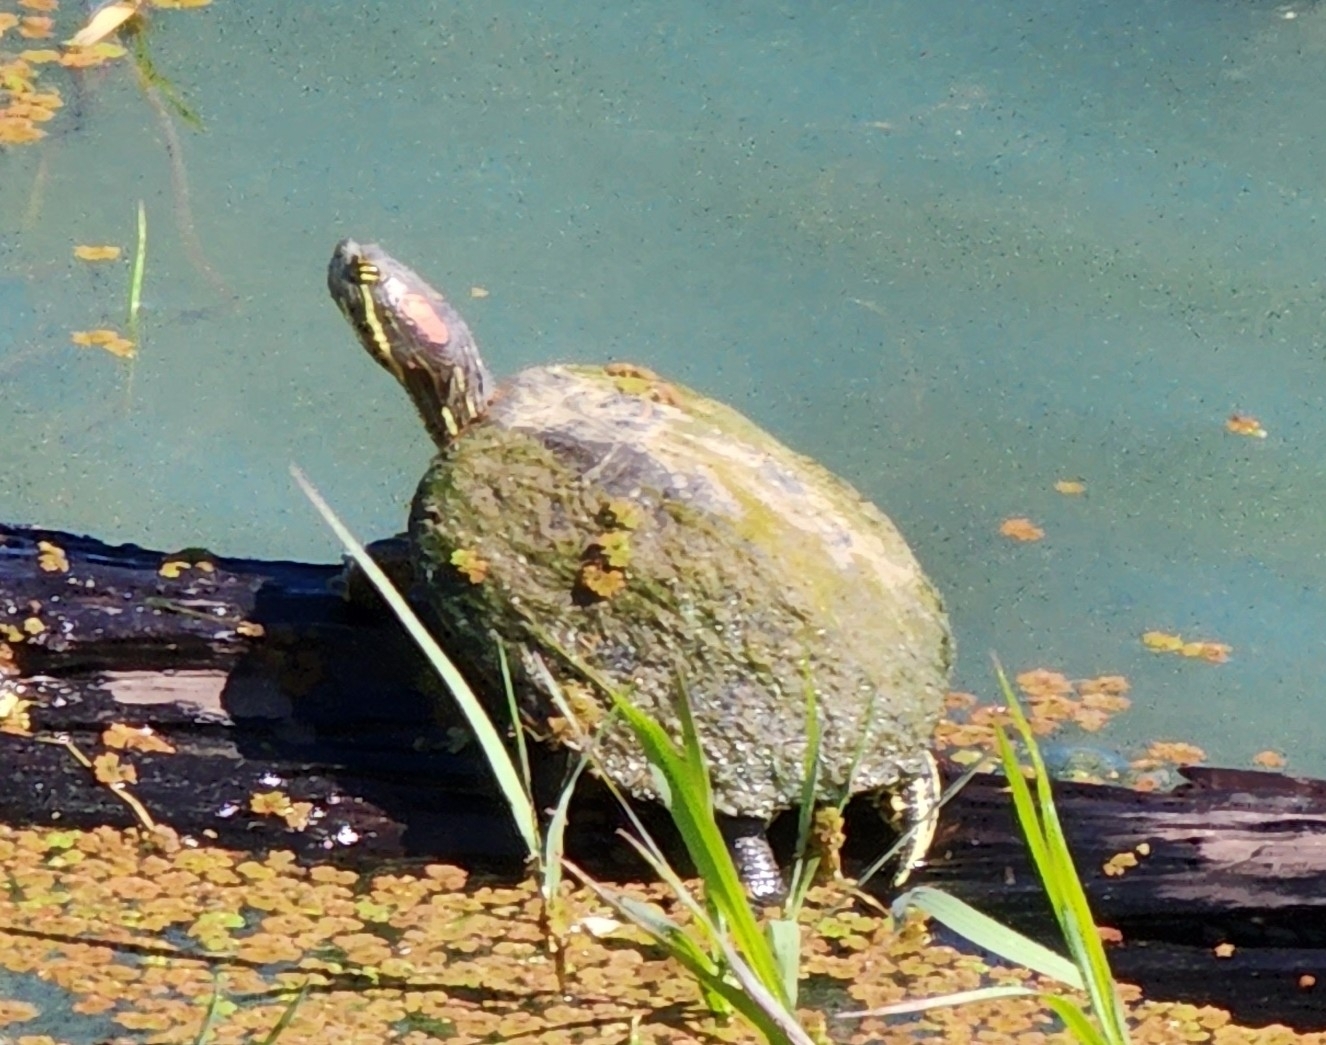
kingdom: Animalia
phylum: Chordata
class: Testudines
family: Emydidae
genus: Trachemys
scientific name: Trachemys scripta
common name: Slider
